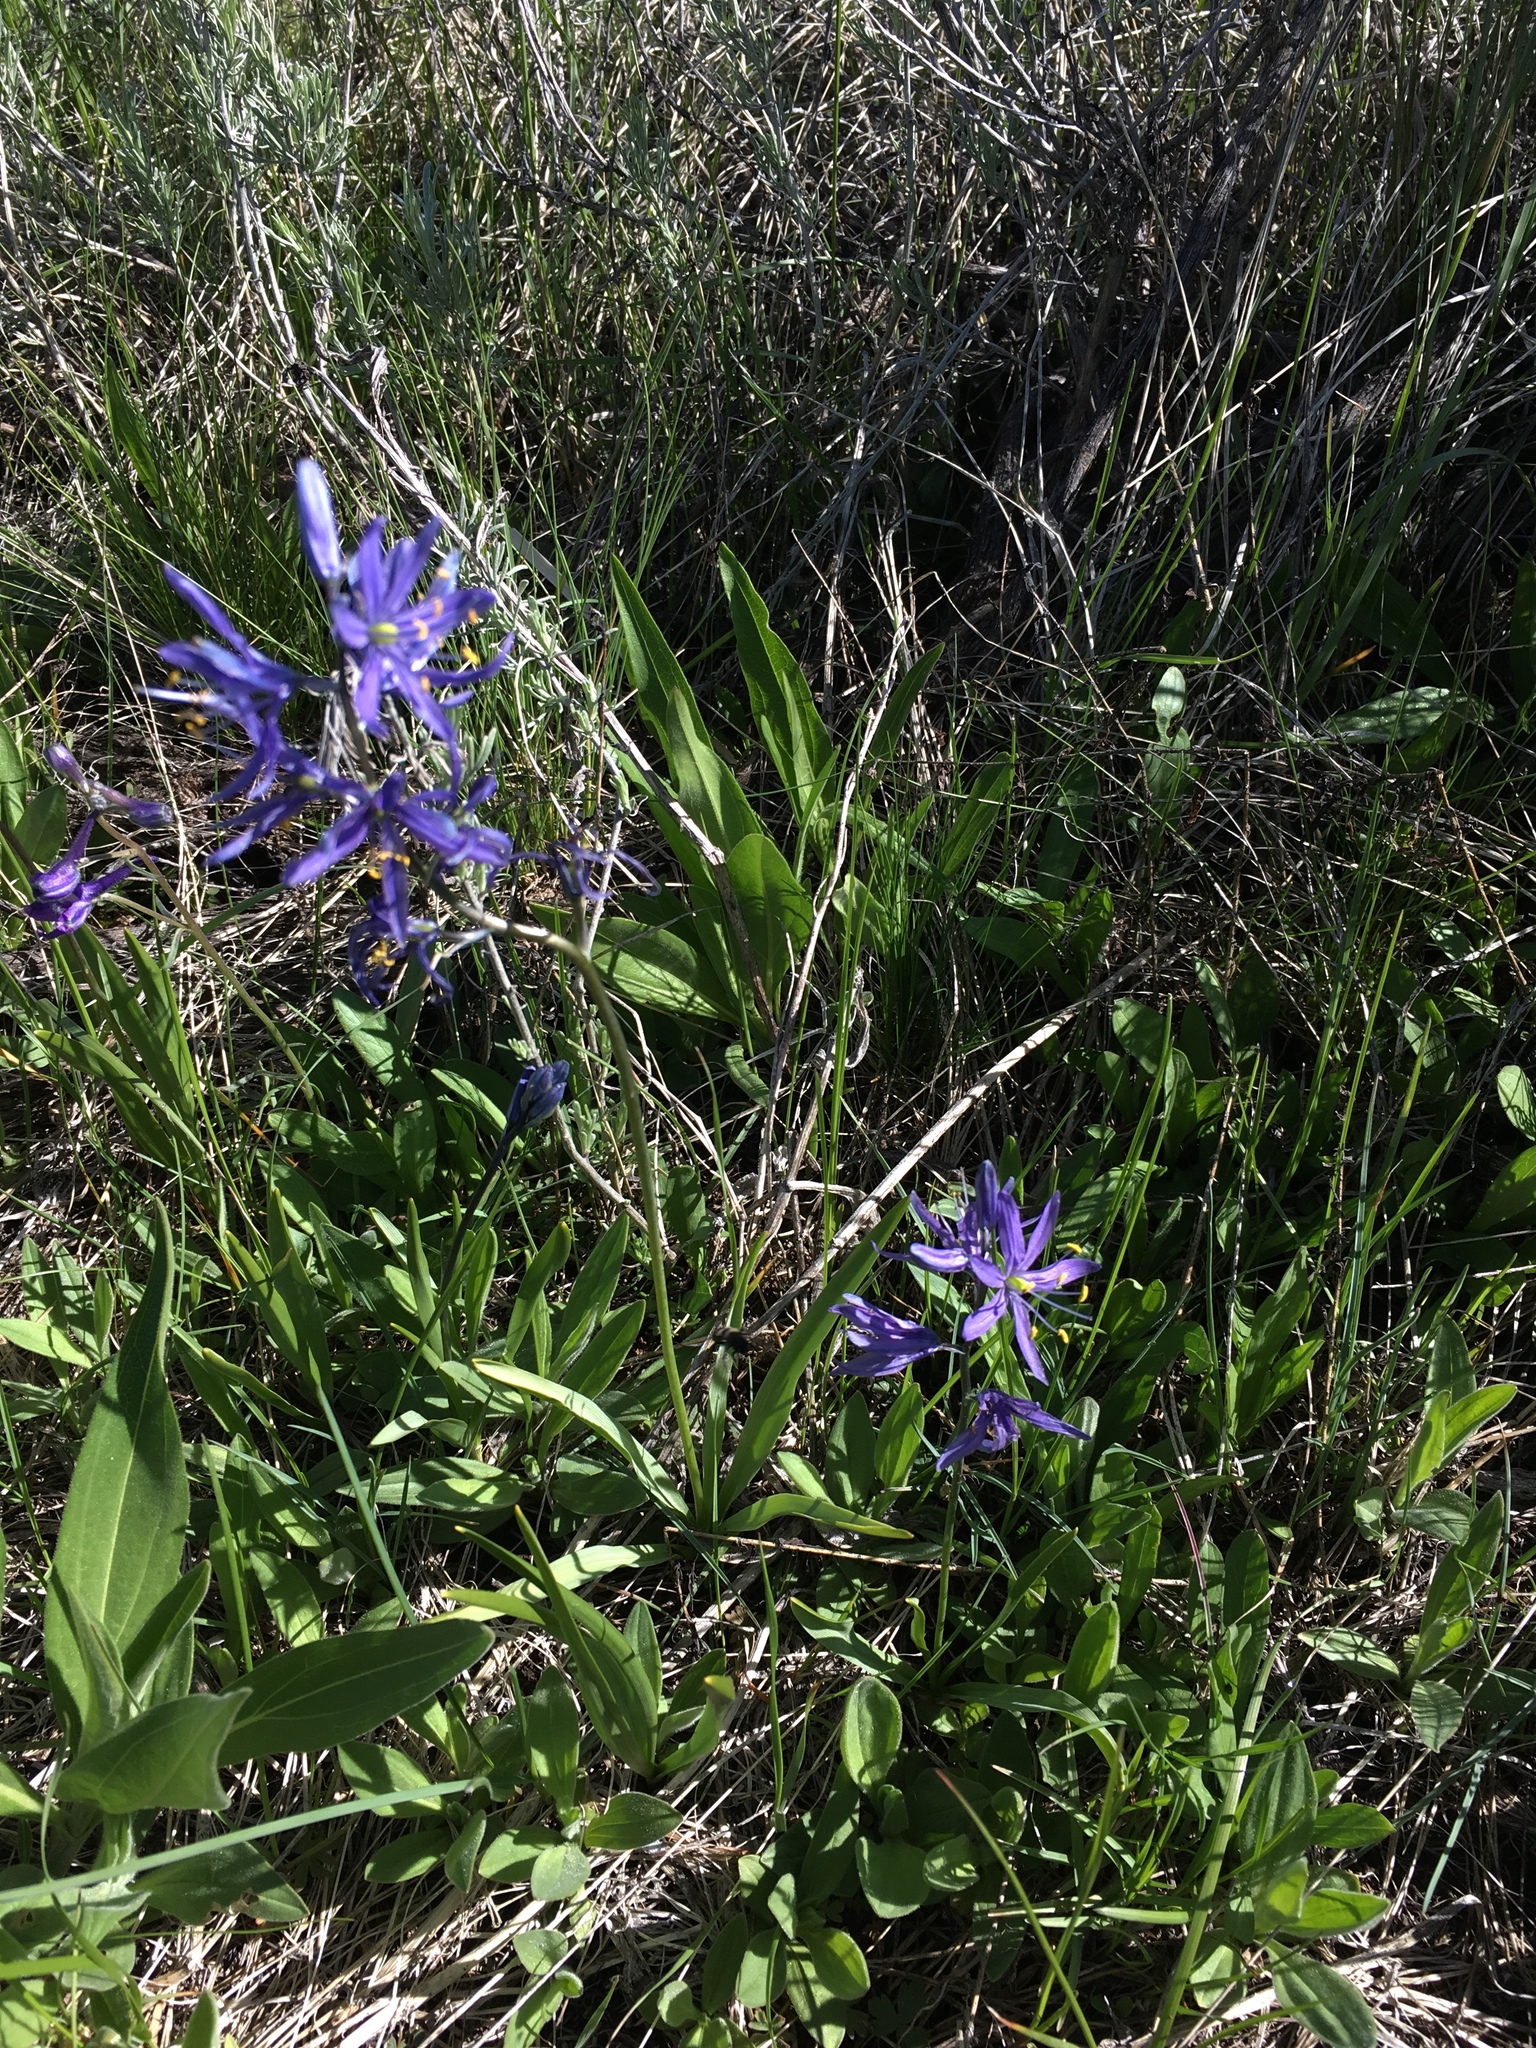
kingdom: Plantae
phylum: Tracheophyta
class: Liliopsida
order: Asparagales
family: Asparagaceae
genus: Camassia
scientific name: Camassia quamash
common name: Common camas
